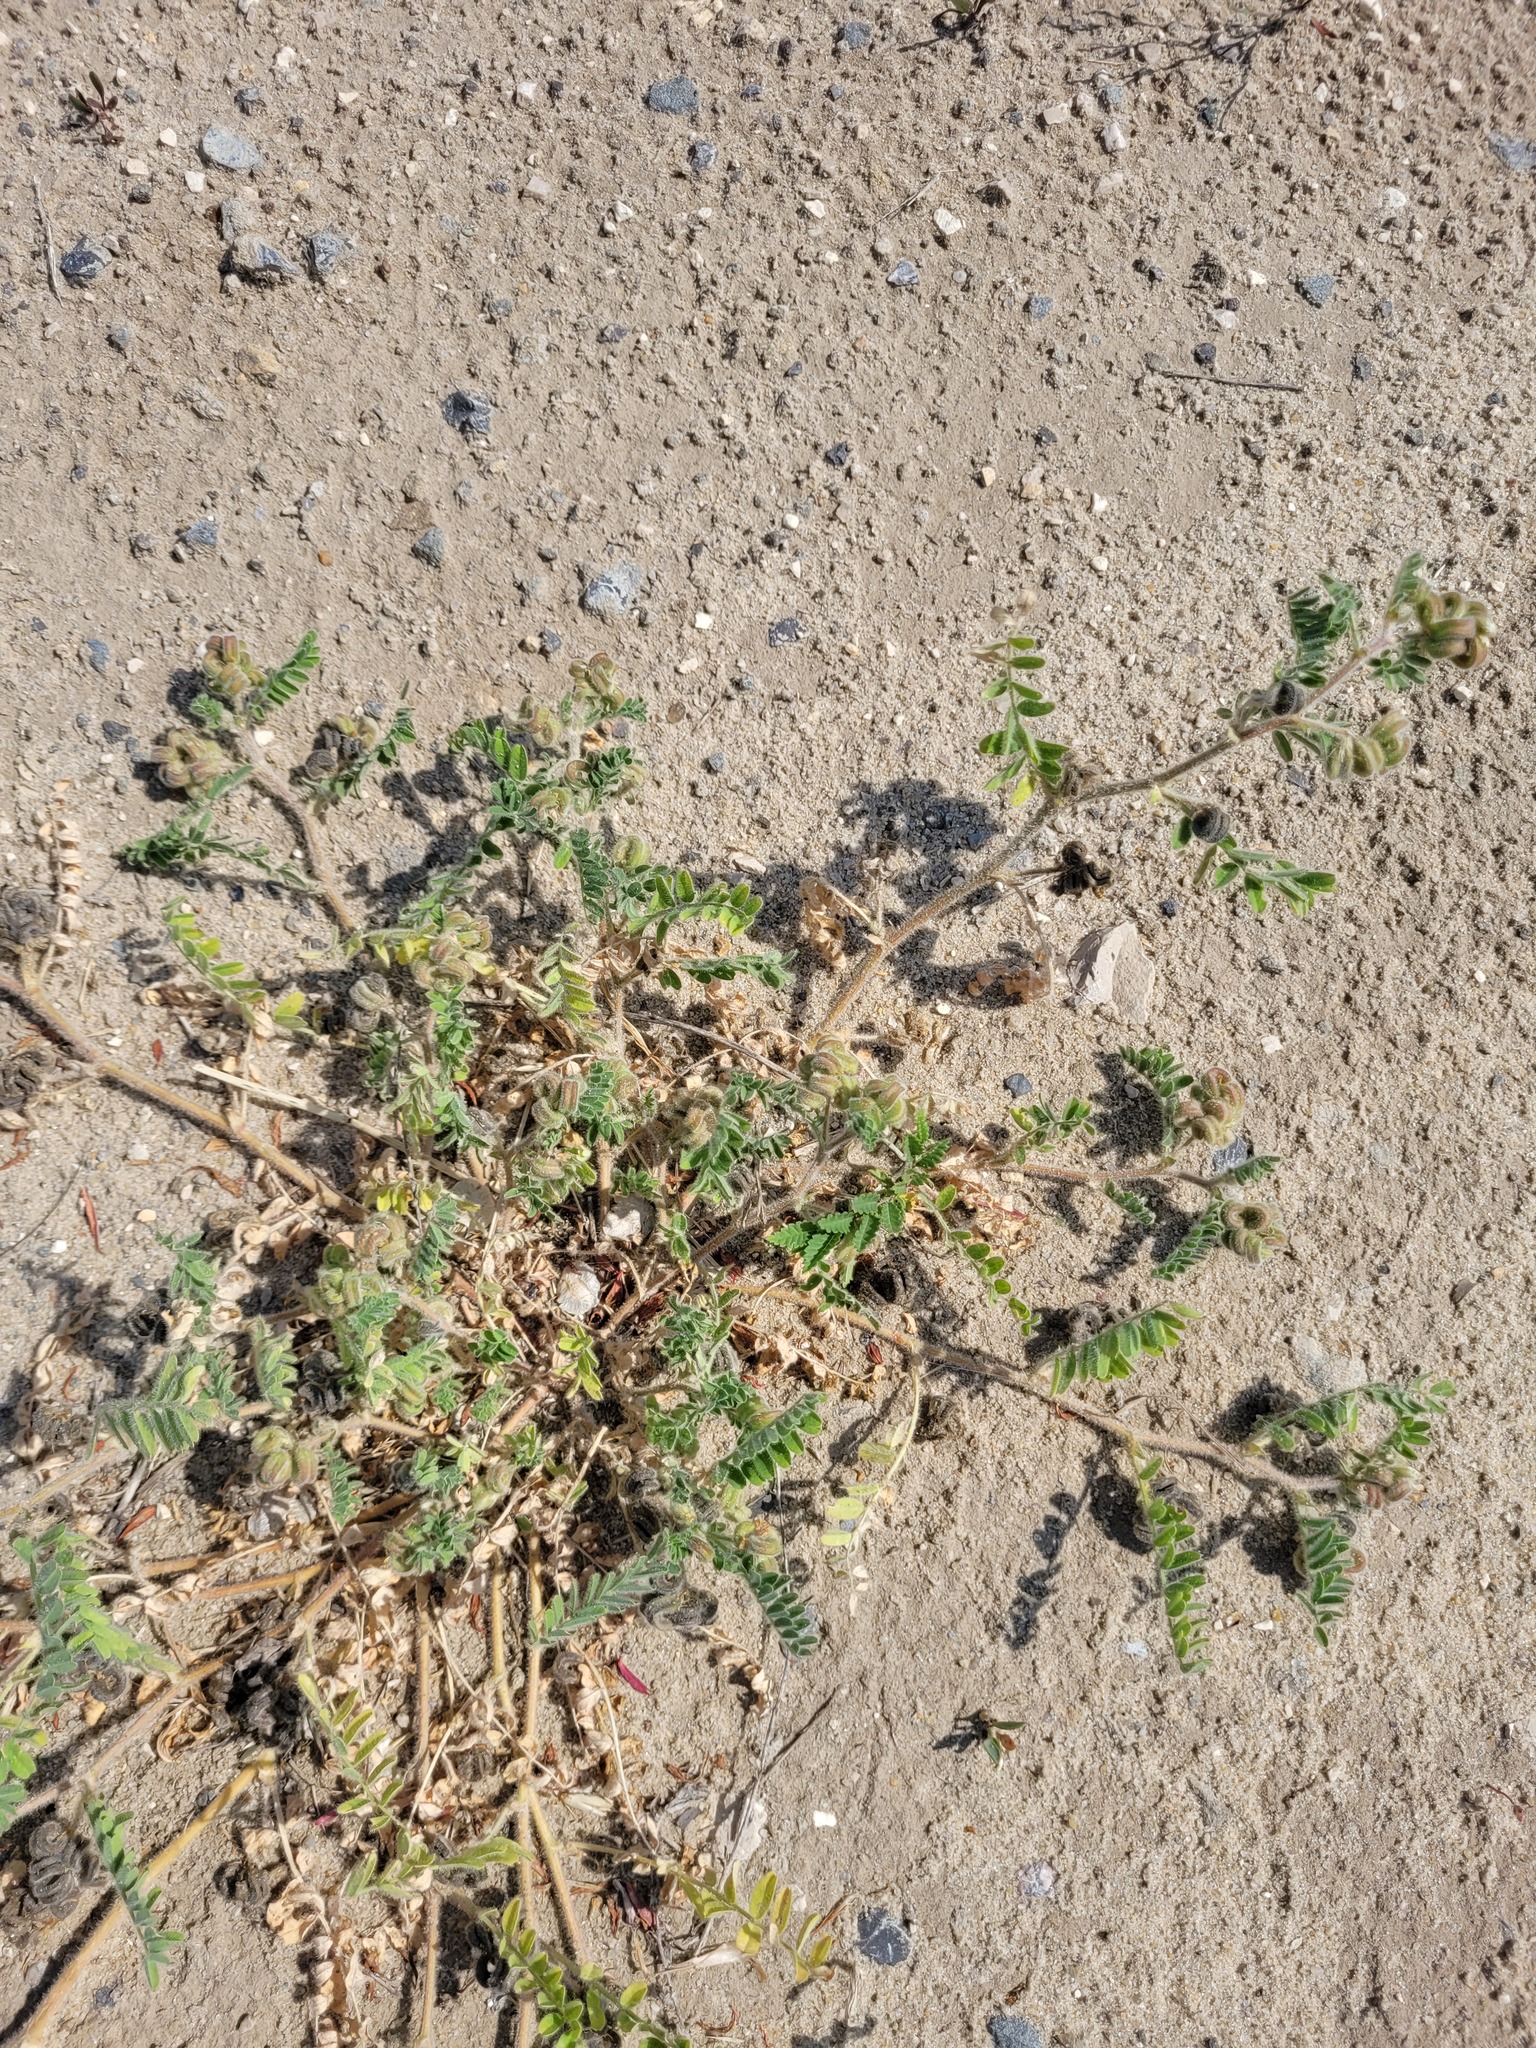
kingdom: Plantae
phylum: Tracheophyta
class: Magnoliopsida
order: Fabales
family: Fabaceae
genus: Astragalus
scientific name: Astragalus contortuplicatus
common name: Hungarian milkvetch
